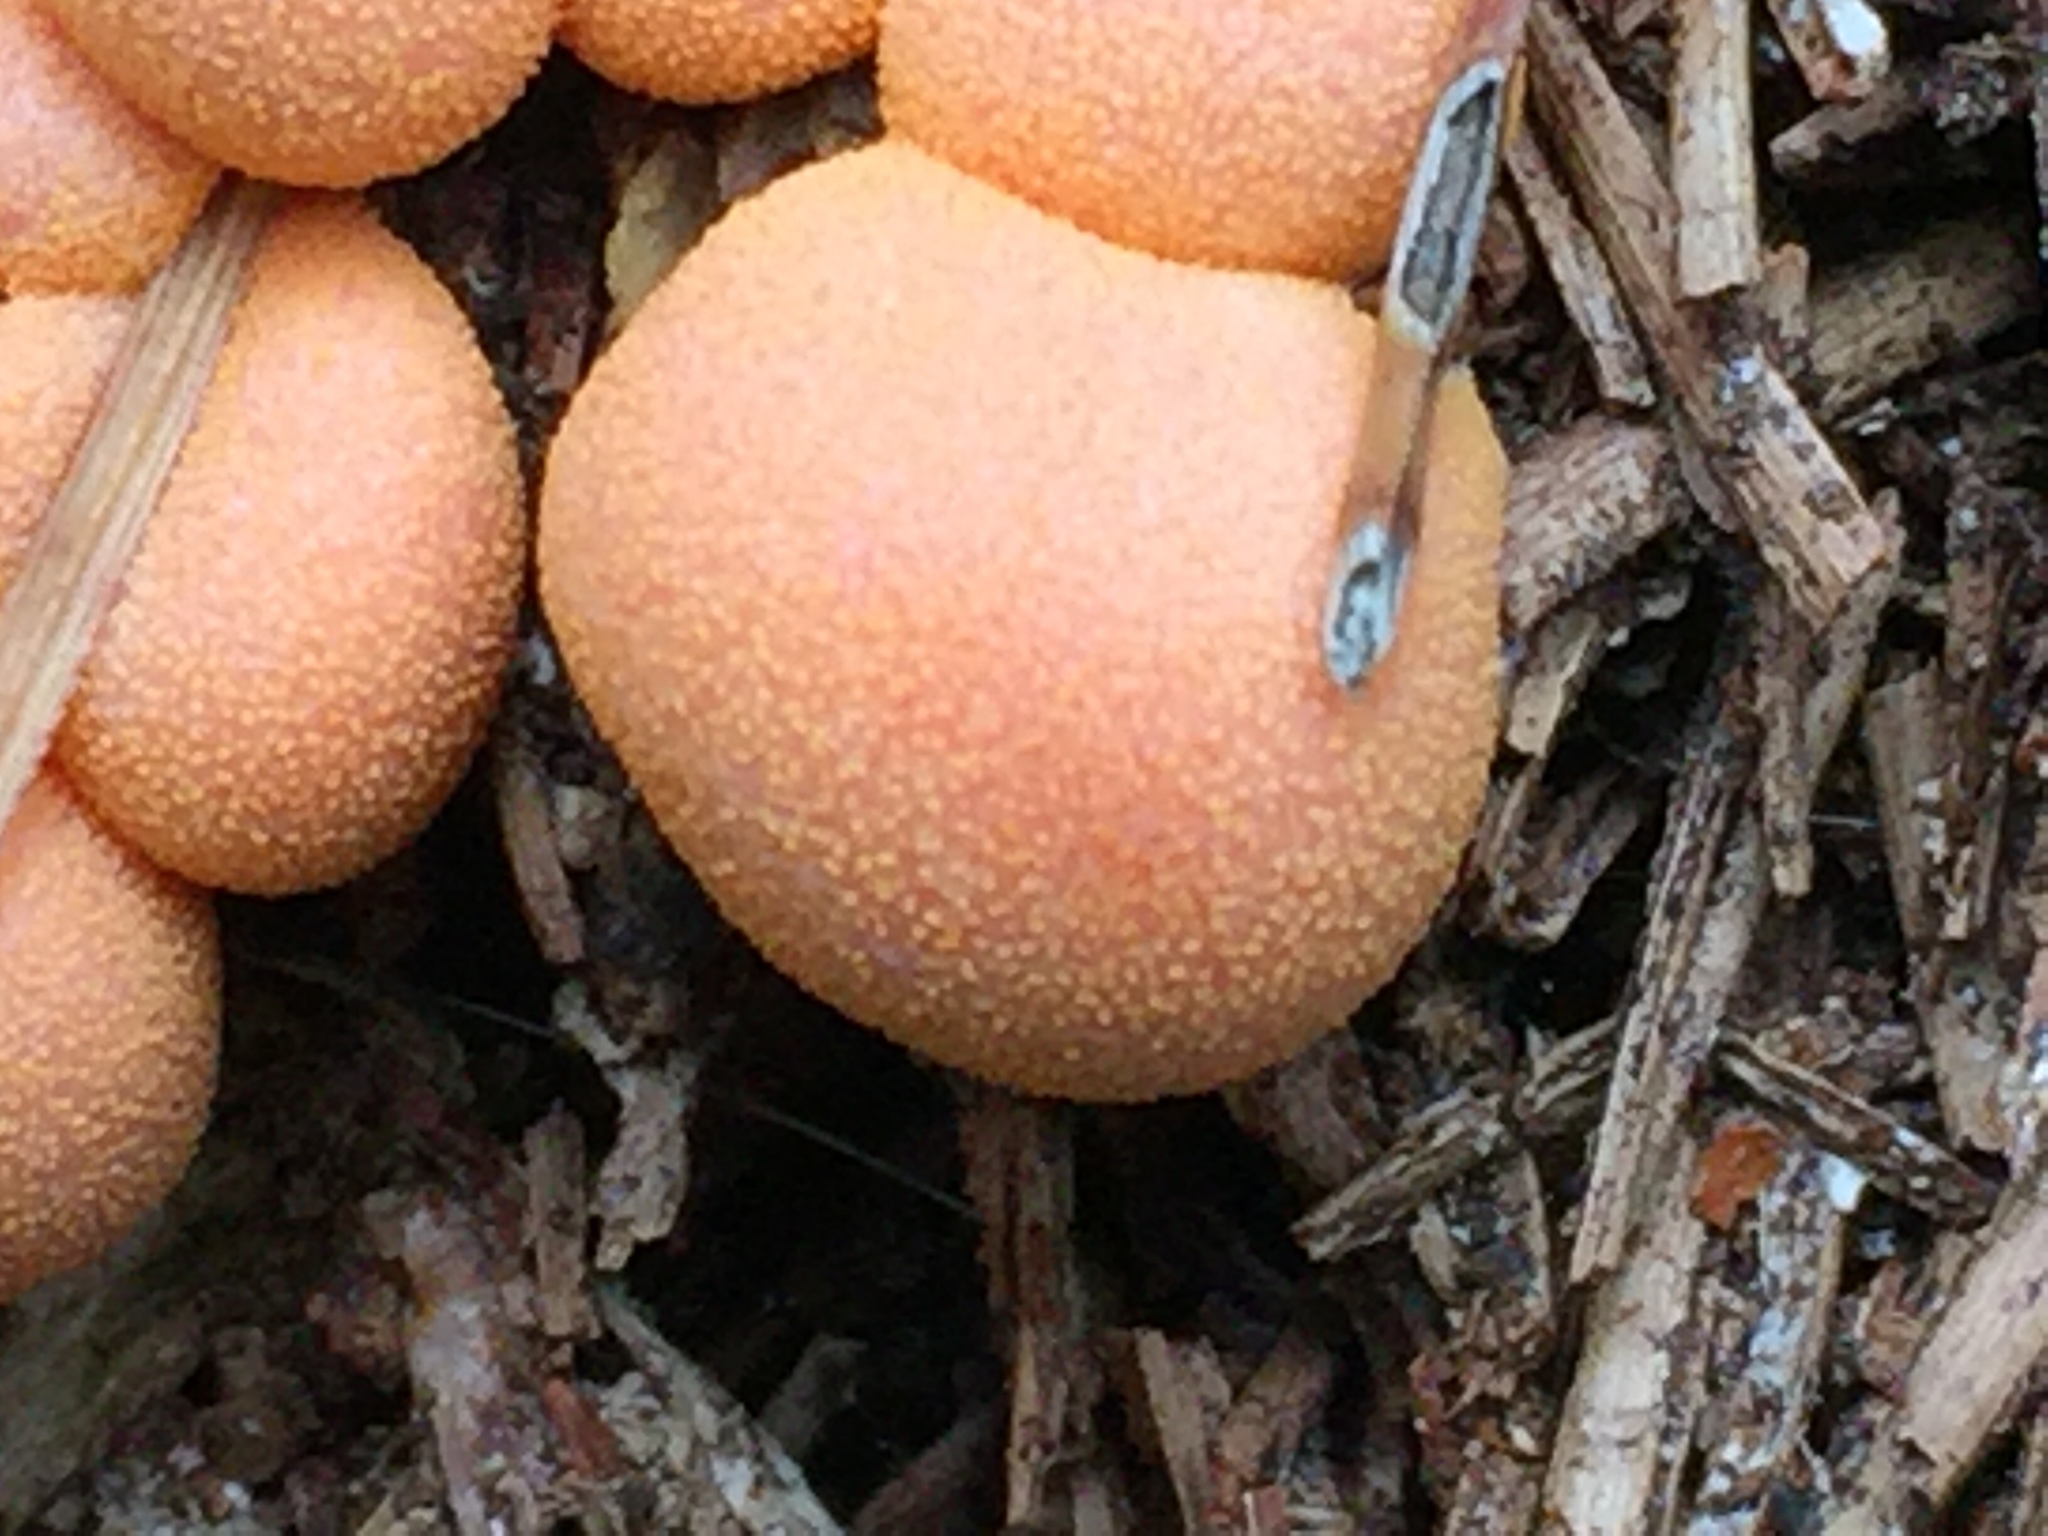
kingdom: Protozoa
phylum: Mycetozoa
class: Myxomycetes
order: Cribrariales
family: Tubiferaceae
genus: Lycogala
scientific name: Lycogala epidendrum
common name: Wolf's milk
